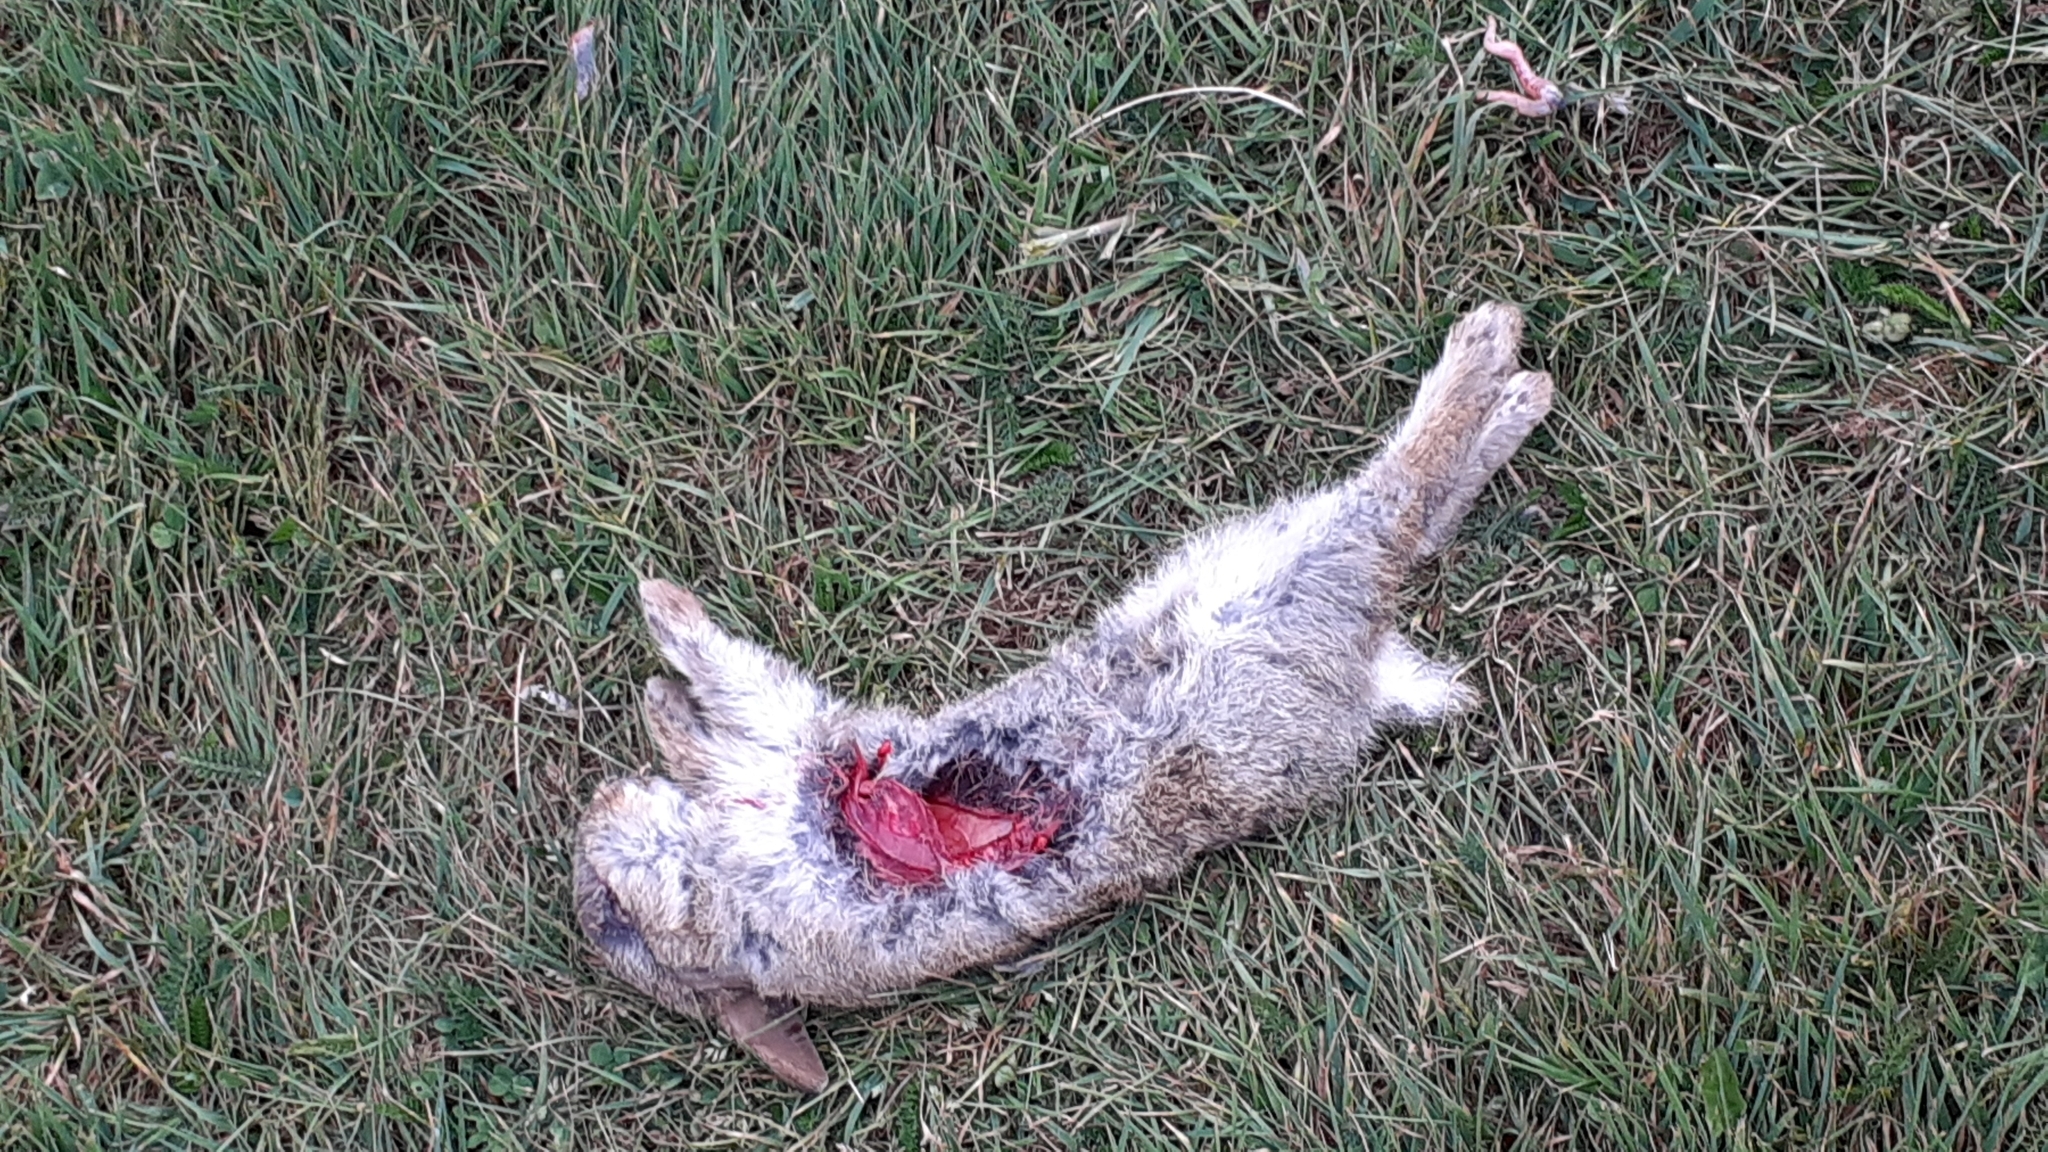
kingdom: Animalia
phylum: Chordata
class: Mammalia
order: Lagomorpha
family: Leporidae
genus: Oryctolagus
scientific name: Oryctolagus cuniculus
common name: European rabbit
